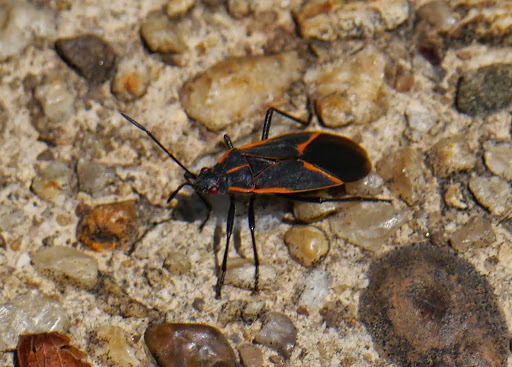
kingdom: Animalia
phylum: Arthropoda
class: Insecta
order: Hemiptera
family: Rhopalidae
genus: Boisea
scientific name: Boisea trivittata
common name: Boxelder bug
